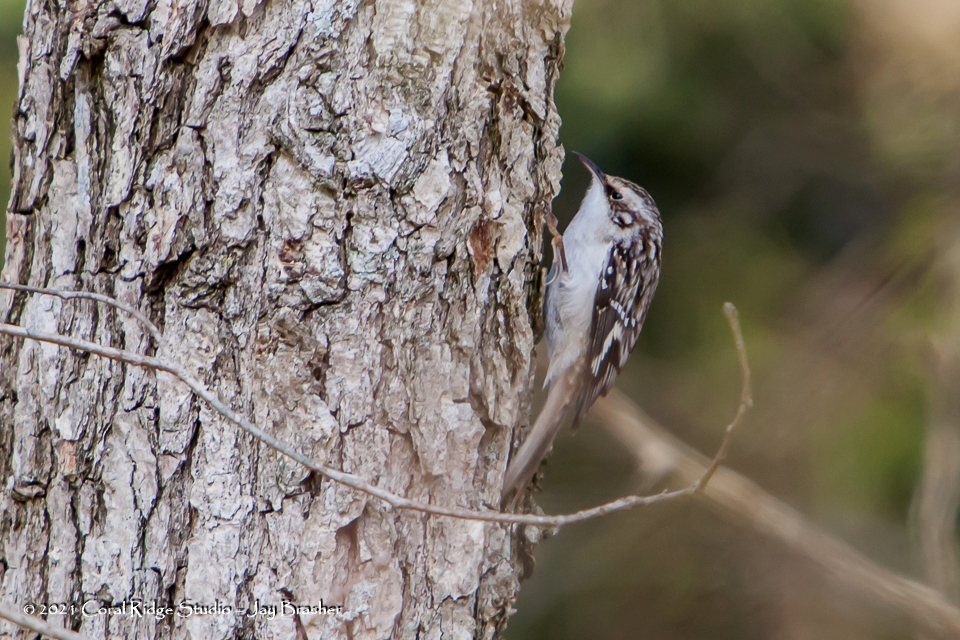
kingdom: Animalia
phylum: Chordata
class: Aves
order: Passeriformes
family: Certhiidae
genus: Certhia
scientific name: Certhia americana
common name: Brown creeper
